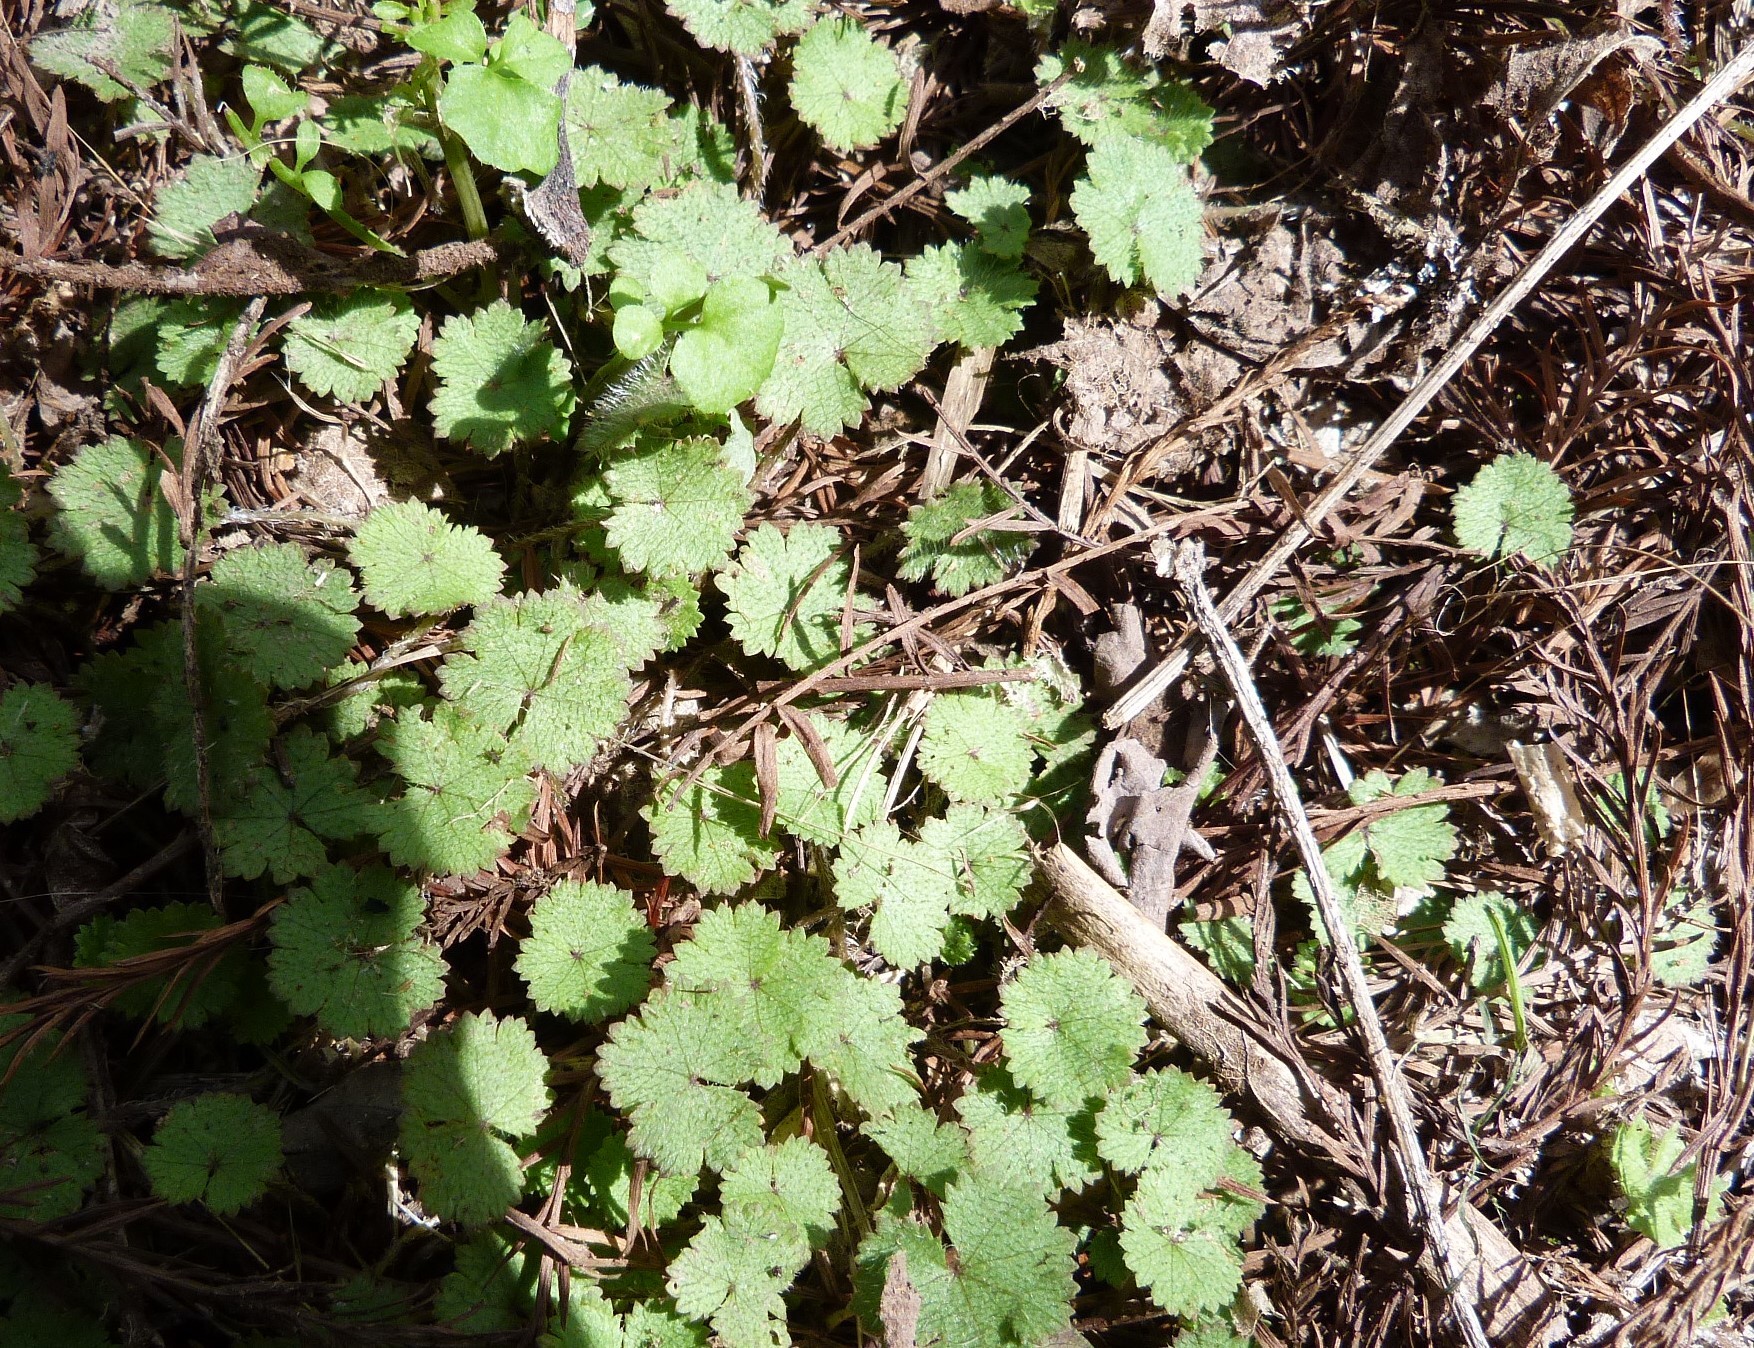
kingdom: Plantae
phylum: Tracheophyta
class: Magnoliopsida
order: Apiales
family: Araliaceae
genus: Hydrocotyle
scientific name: Hydrocotyle moschata
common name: Hairy pennywort
